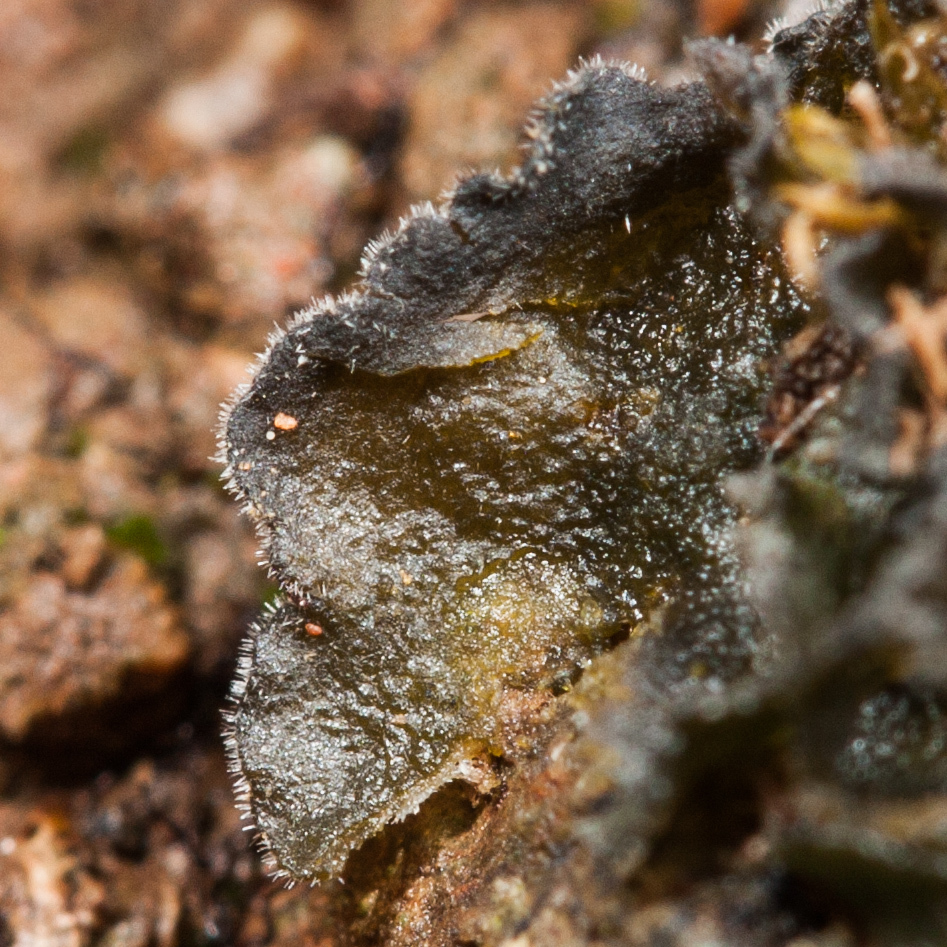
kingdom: Fungi
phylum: Ascomycota
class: Lecanoromycetes
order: Peltigerales
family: Massalongiaceae
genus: Leptochidium
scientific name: Leptochidium albociliatum
